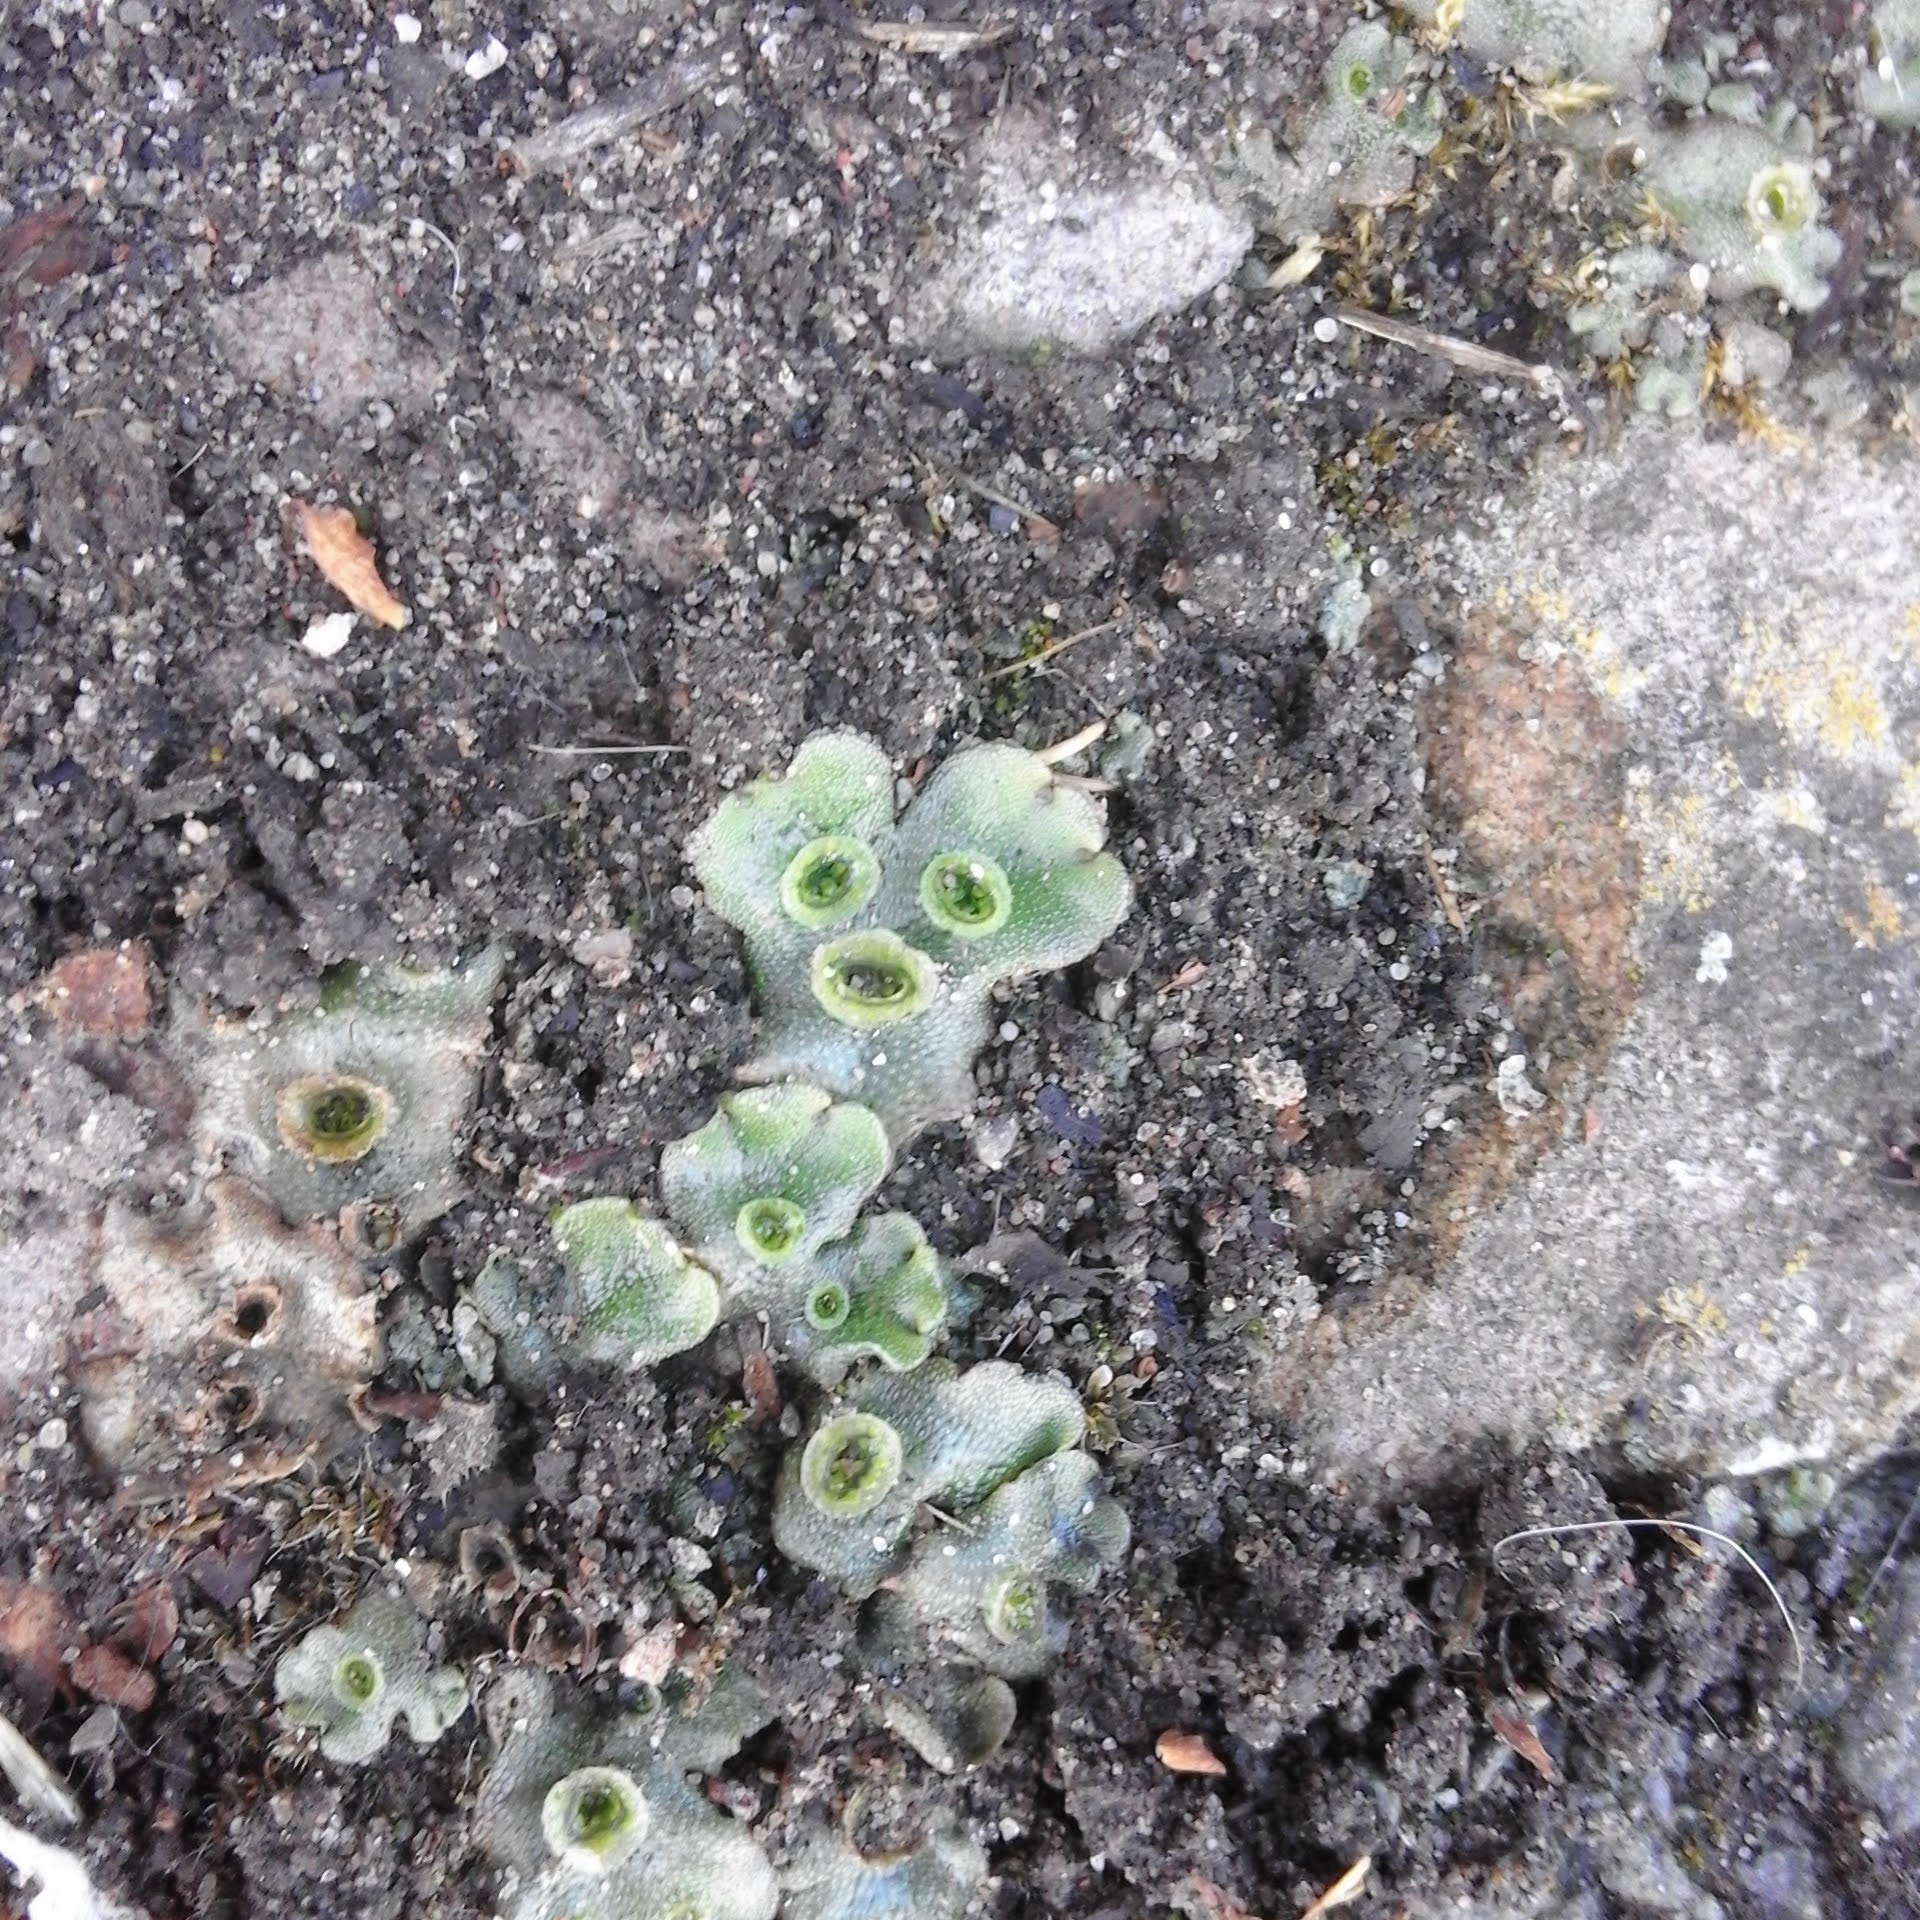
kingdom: Plantae
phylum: Marchantiophyta
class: Marchantiopsida
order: Marchantiales
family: Marchantiaceae
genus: Marchantia
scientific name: Marchantia polymorpha
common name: Common liverwort
